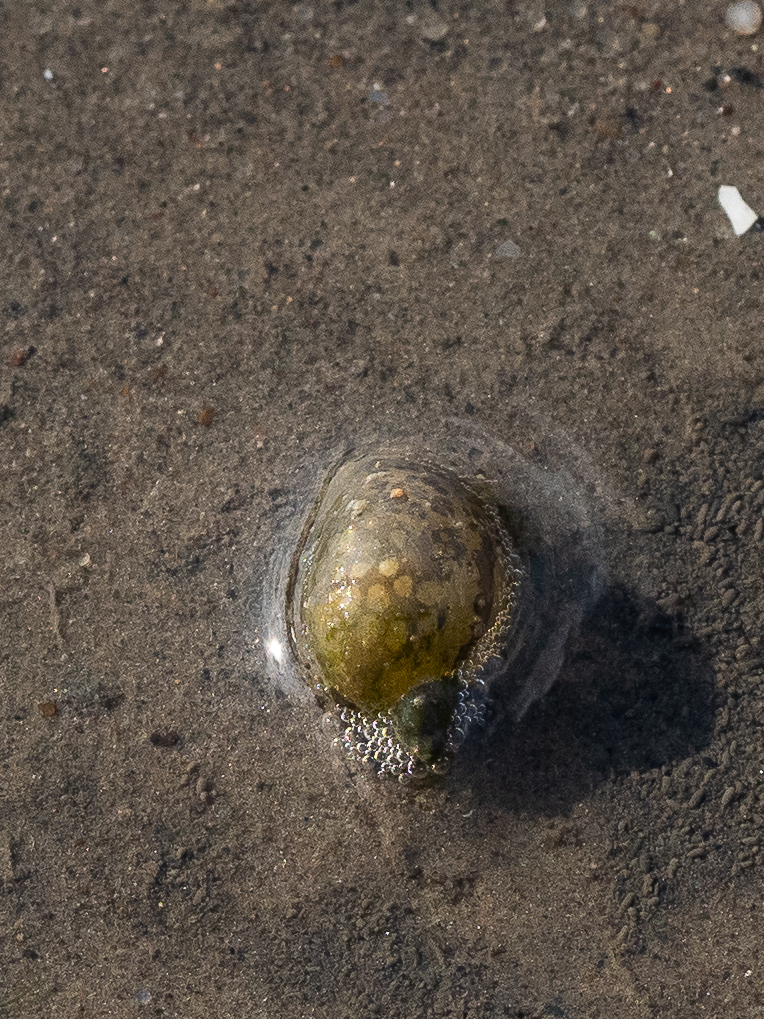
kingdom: Animalia
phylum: Mollusca
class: Gastropoda
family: Lymnaeidae
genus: Radix
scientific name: Radix auricularia
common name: Ear pond snail
